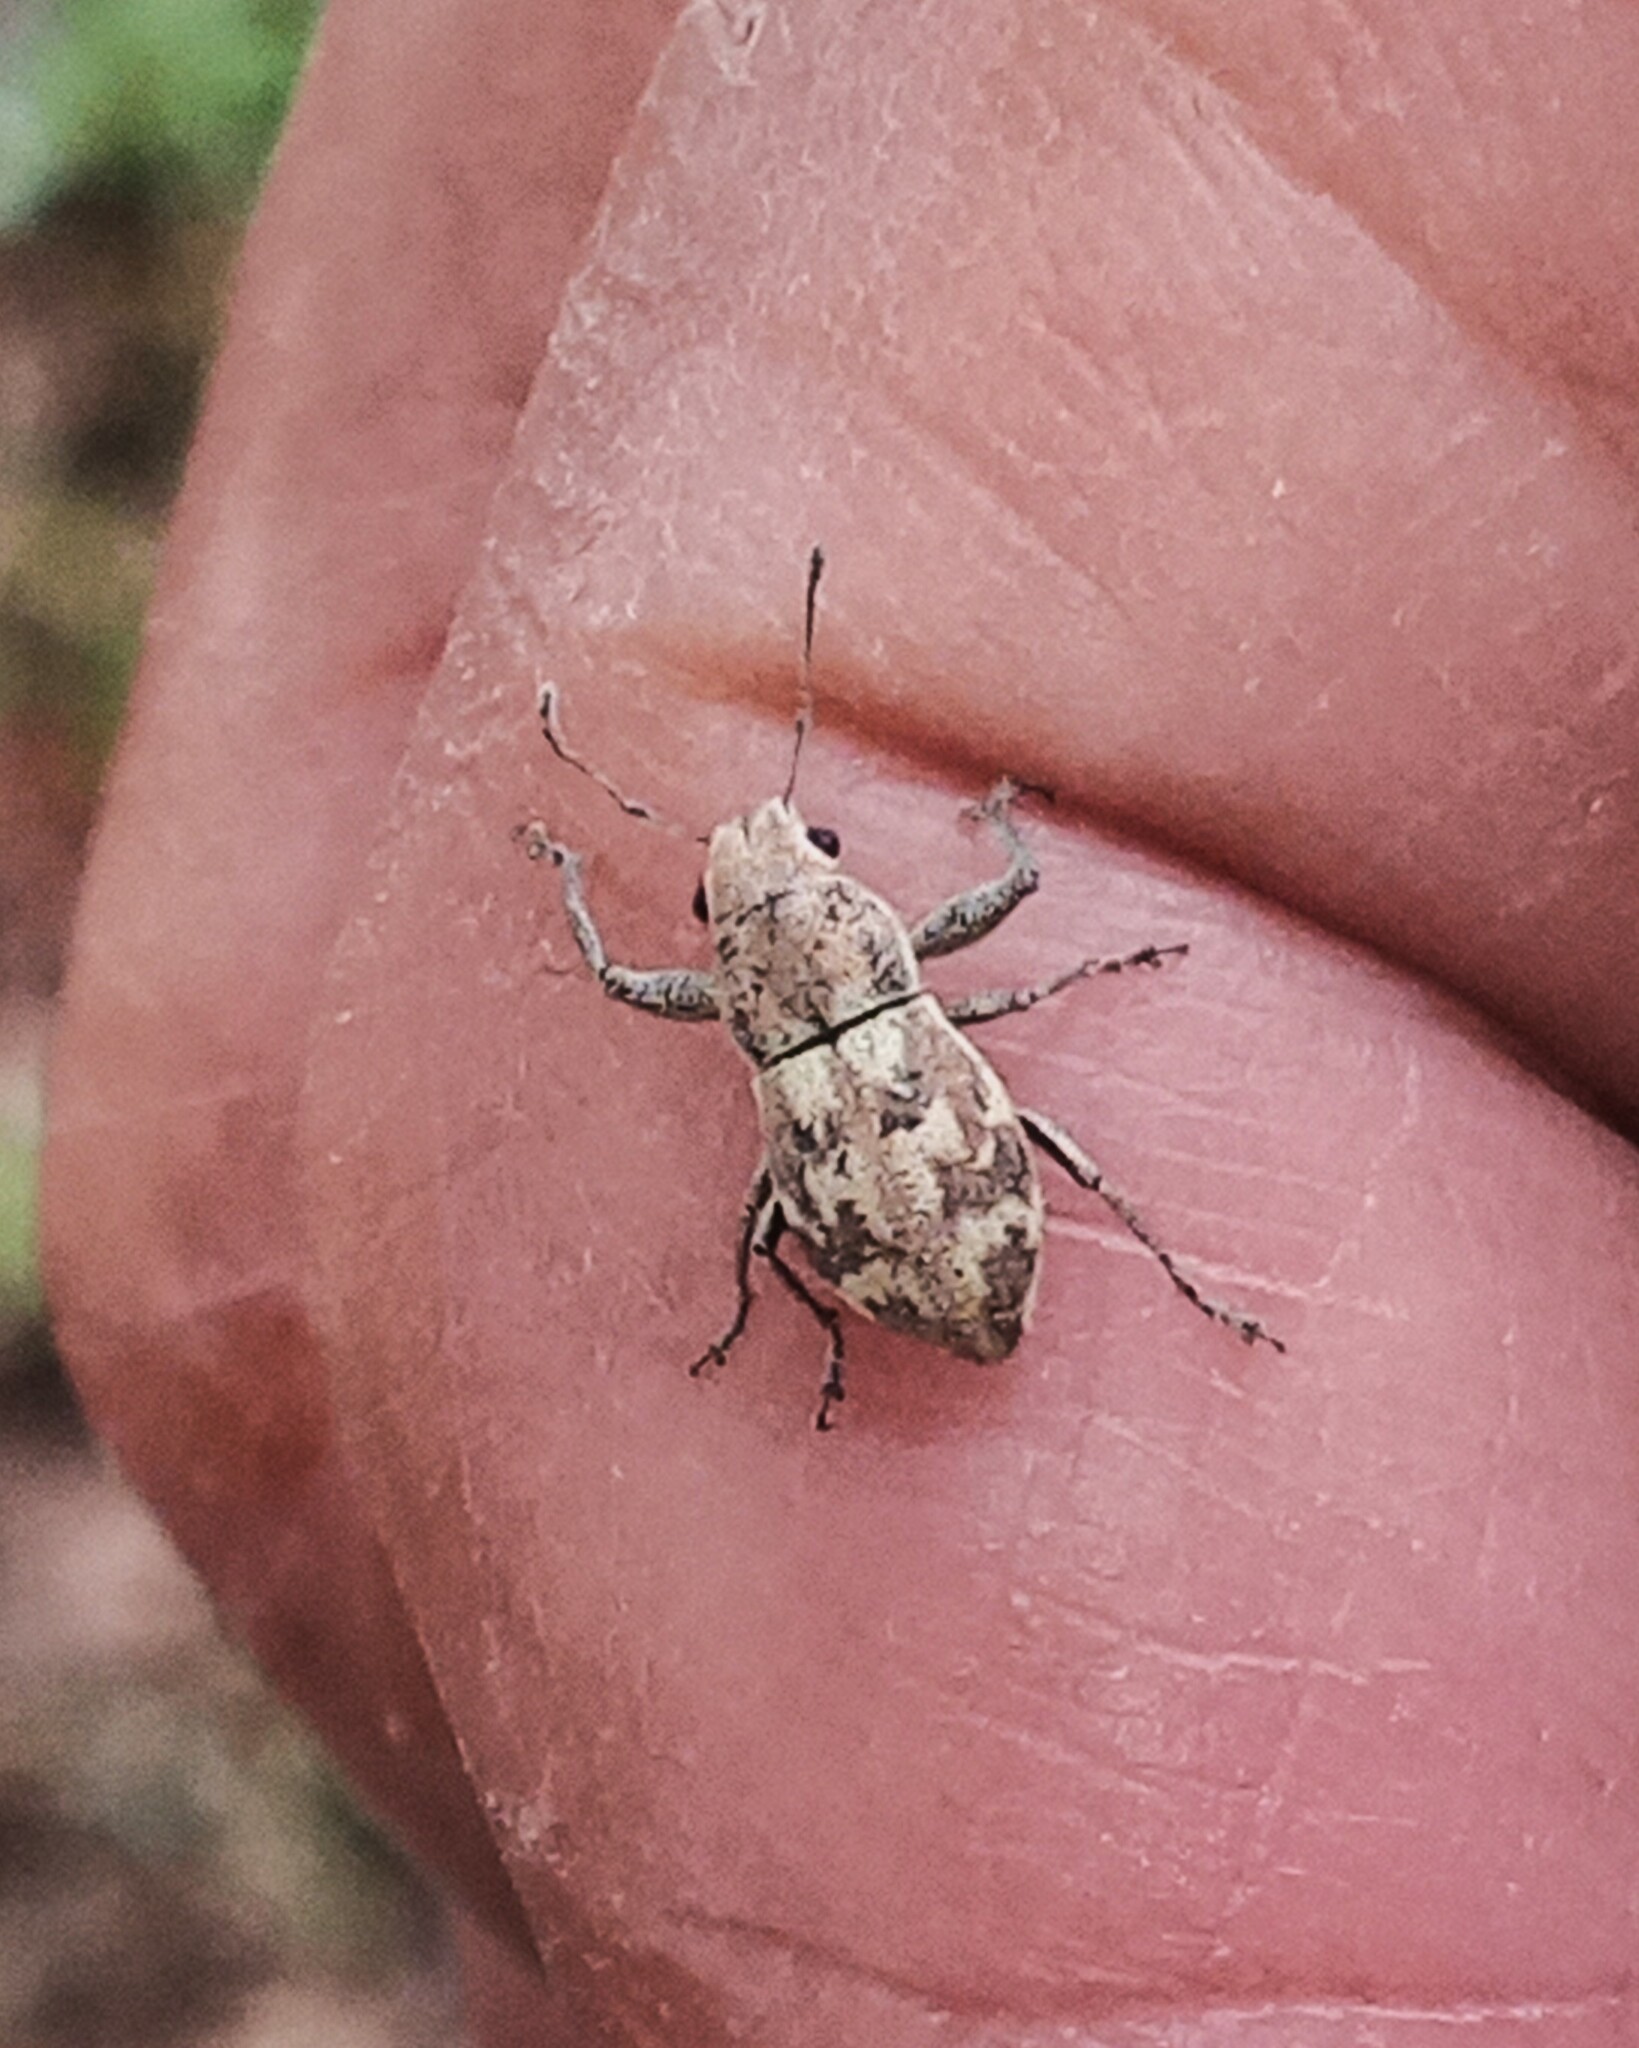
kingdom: Animalia
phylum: Arthropoda
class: Insecta
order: Coleoptera
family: Curculionidae
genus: Parapantomorus
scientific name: Parapantomorus fluctuosus
